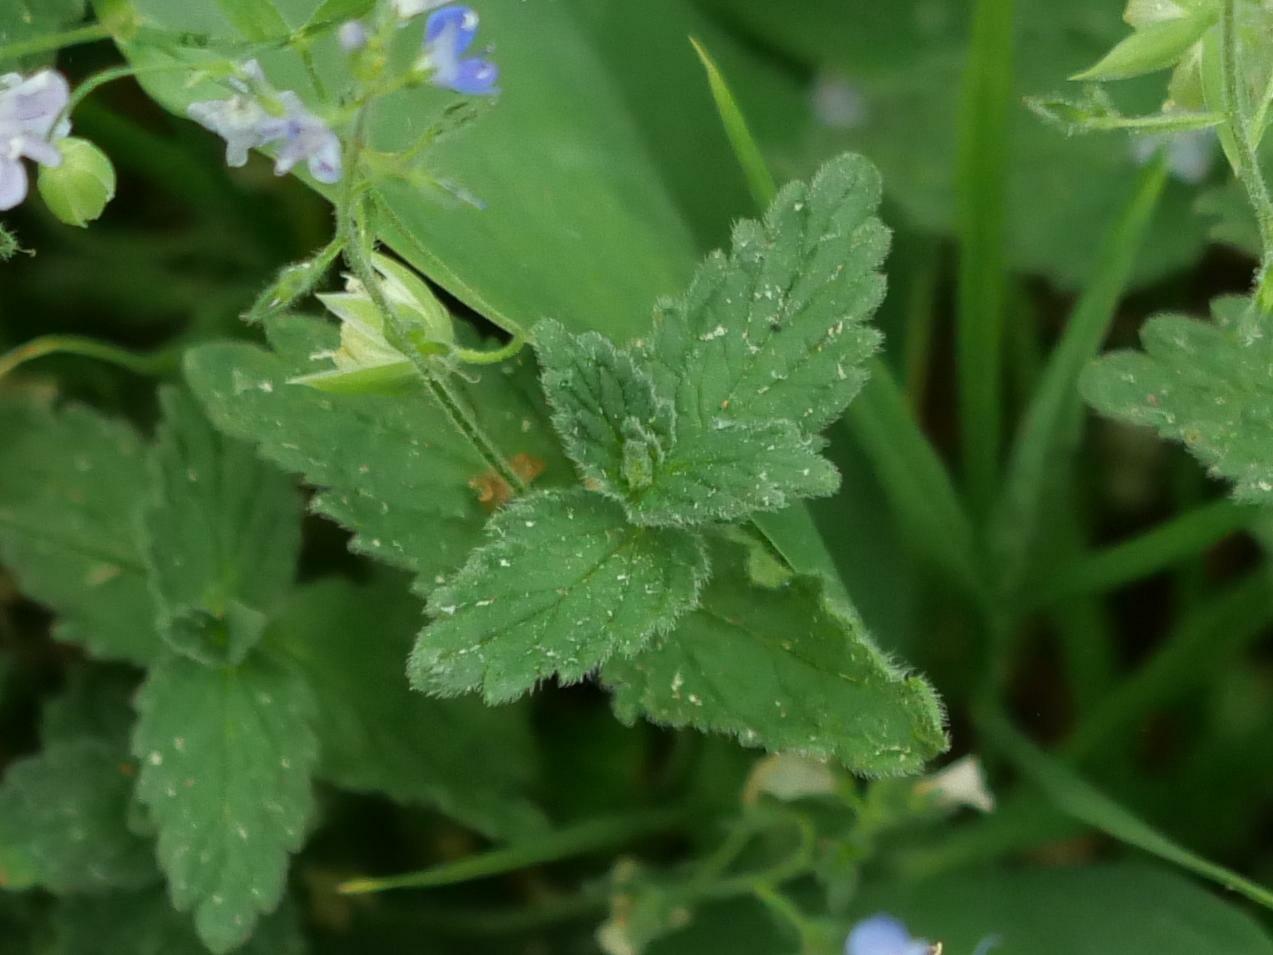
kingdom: Plantae
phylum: Tracheophyta
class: Magnoliopsida
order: Lamiales
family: Plantaginaceae
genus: Veronica
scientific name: Veronica chamaedrys
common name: Germander speedwell
